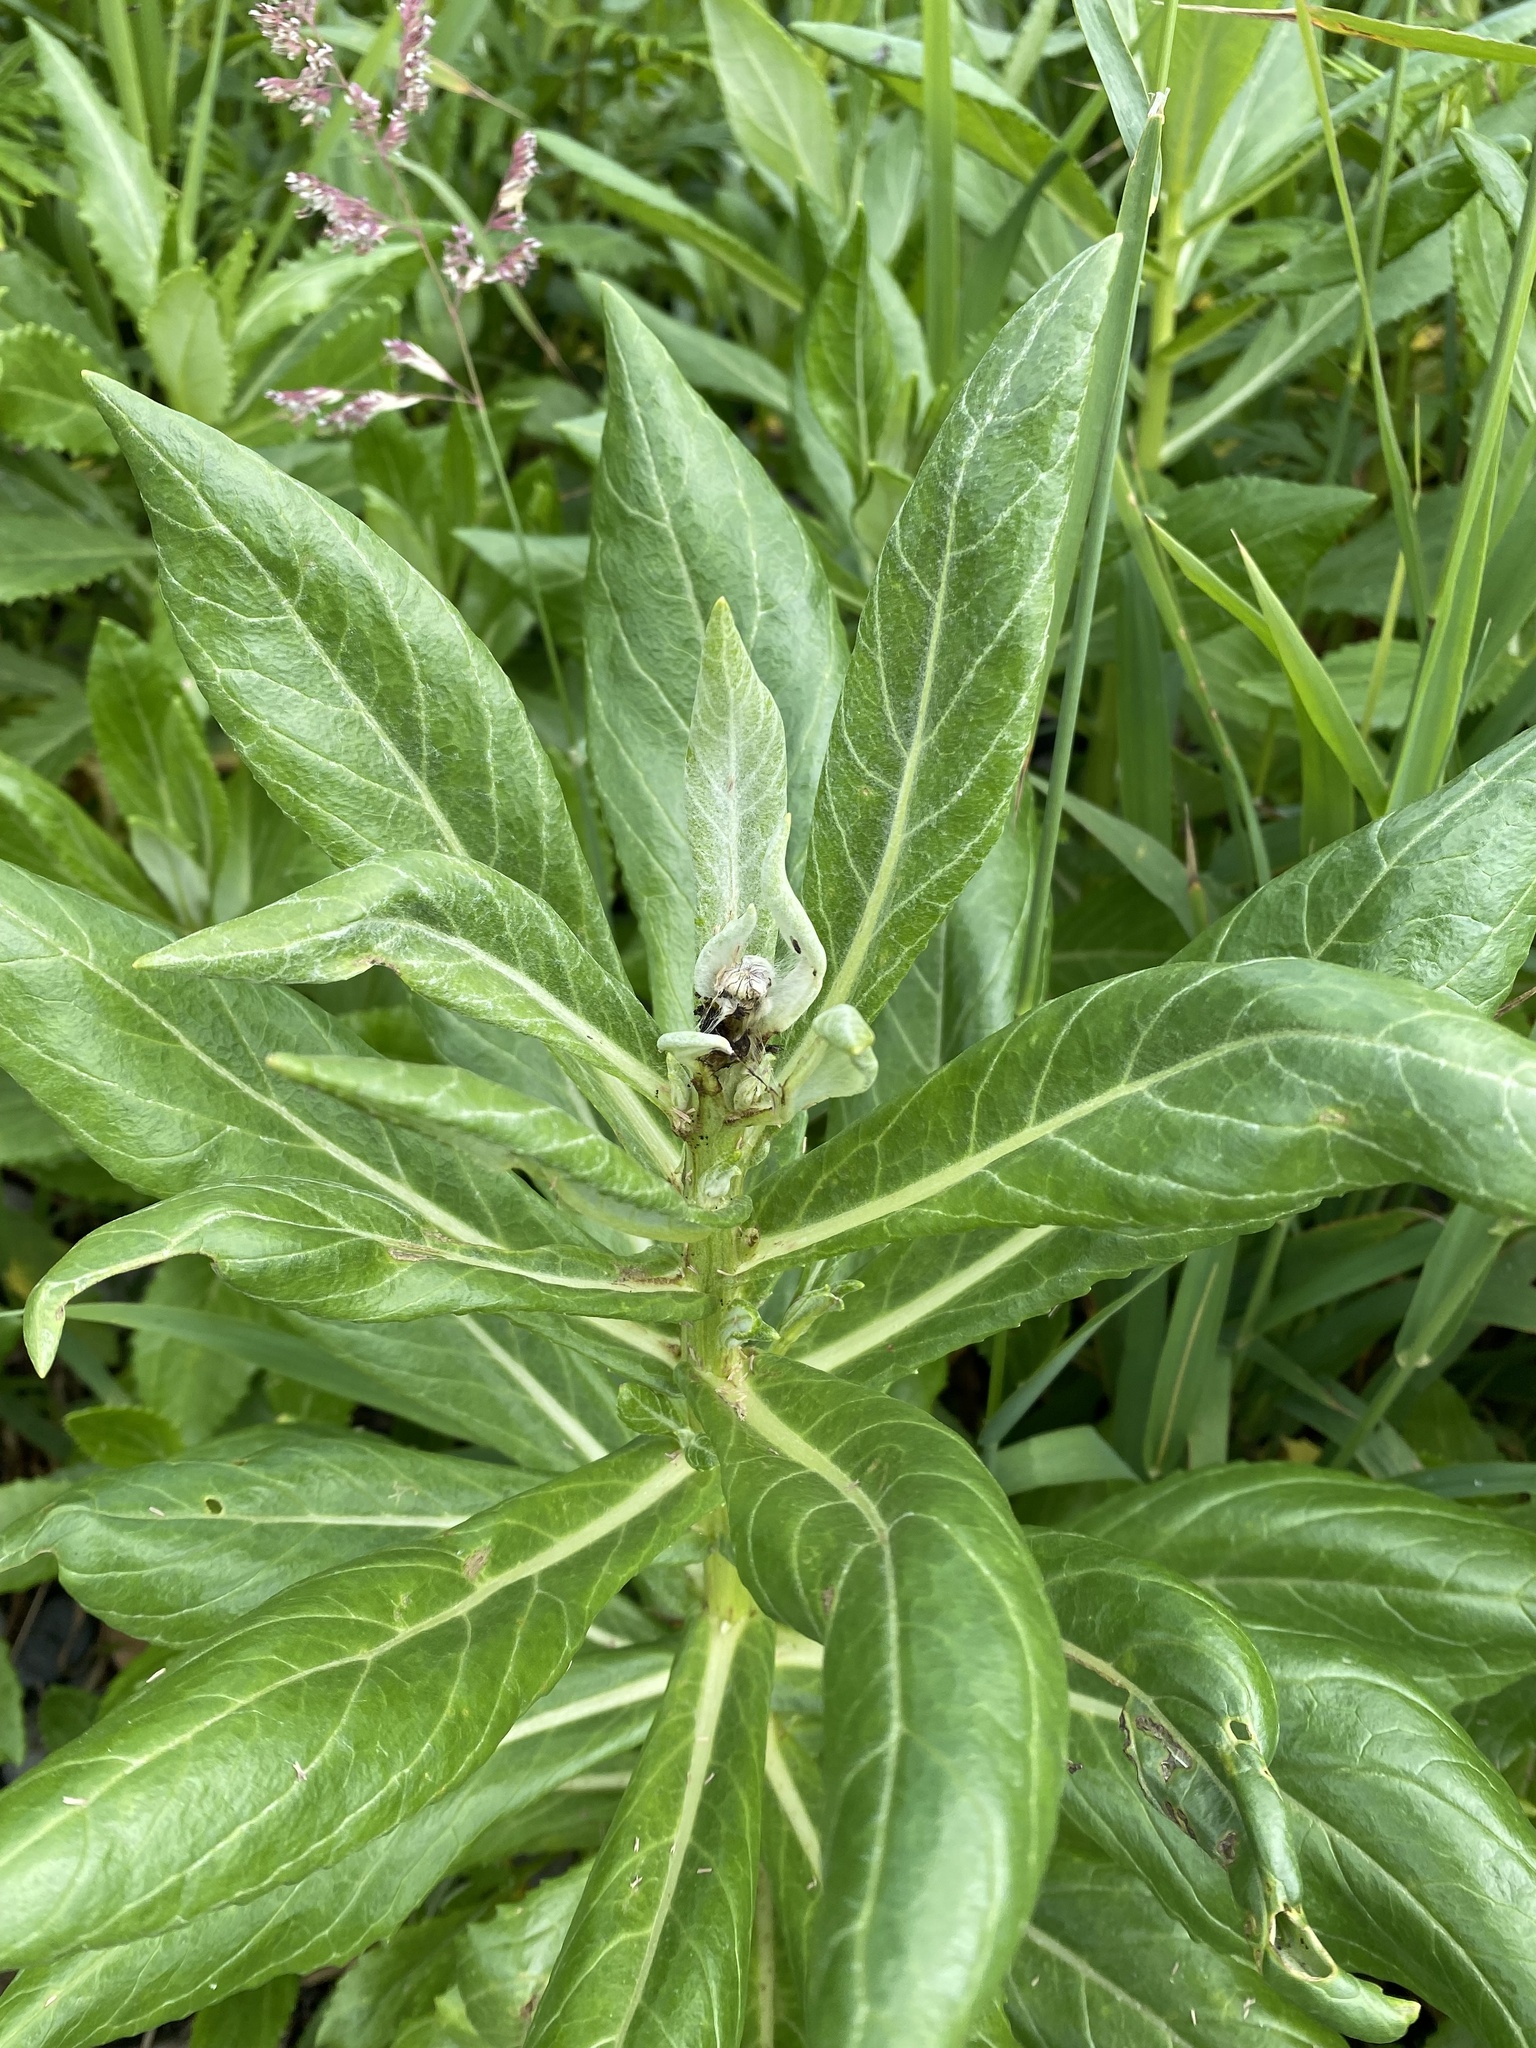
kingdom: Plantae
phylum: Tracheophyta
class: Magnoliopsida
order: Asterales
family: Asteraceae
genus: Jacobaea
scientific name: Jacobaea pseudoarnica
